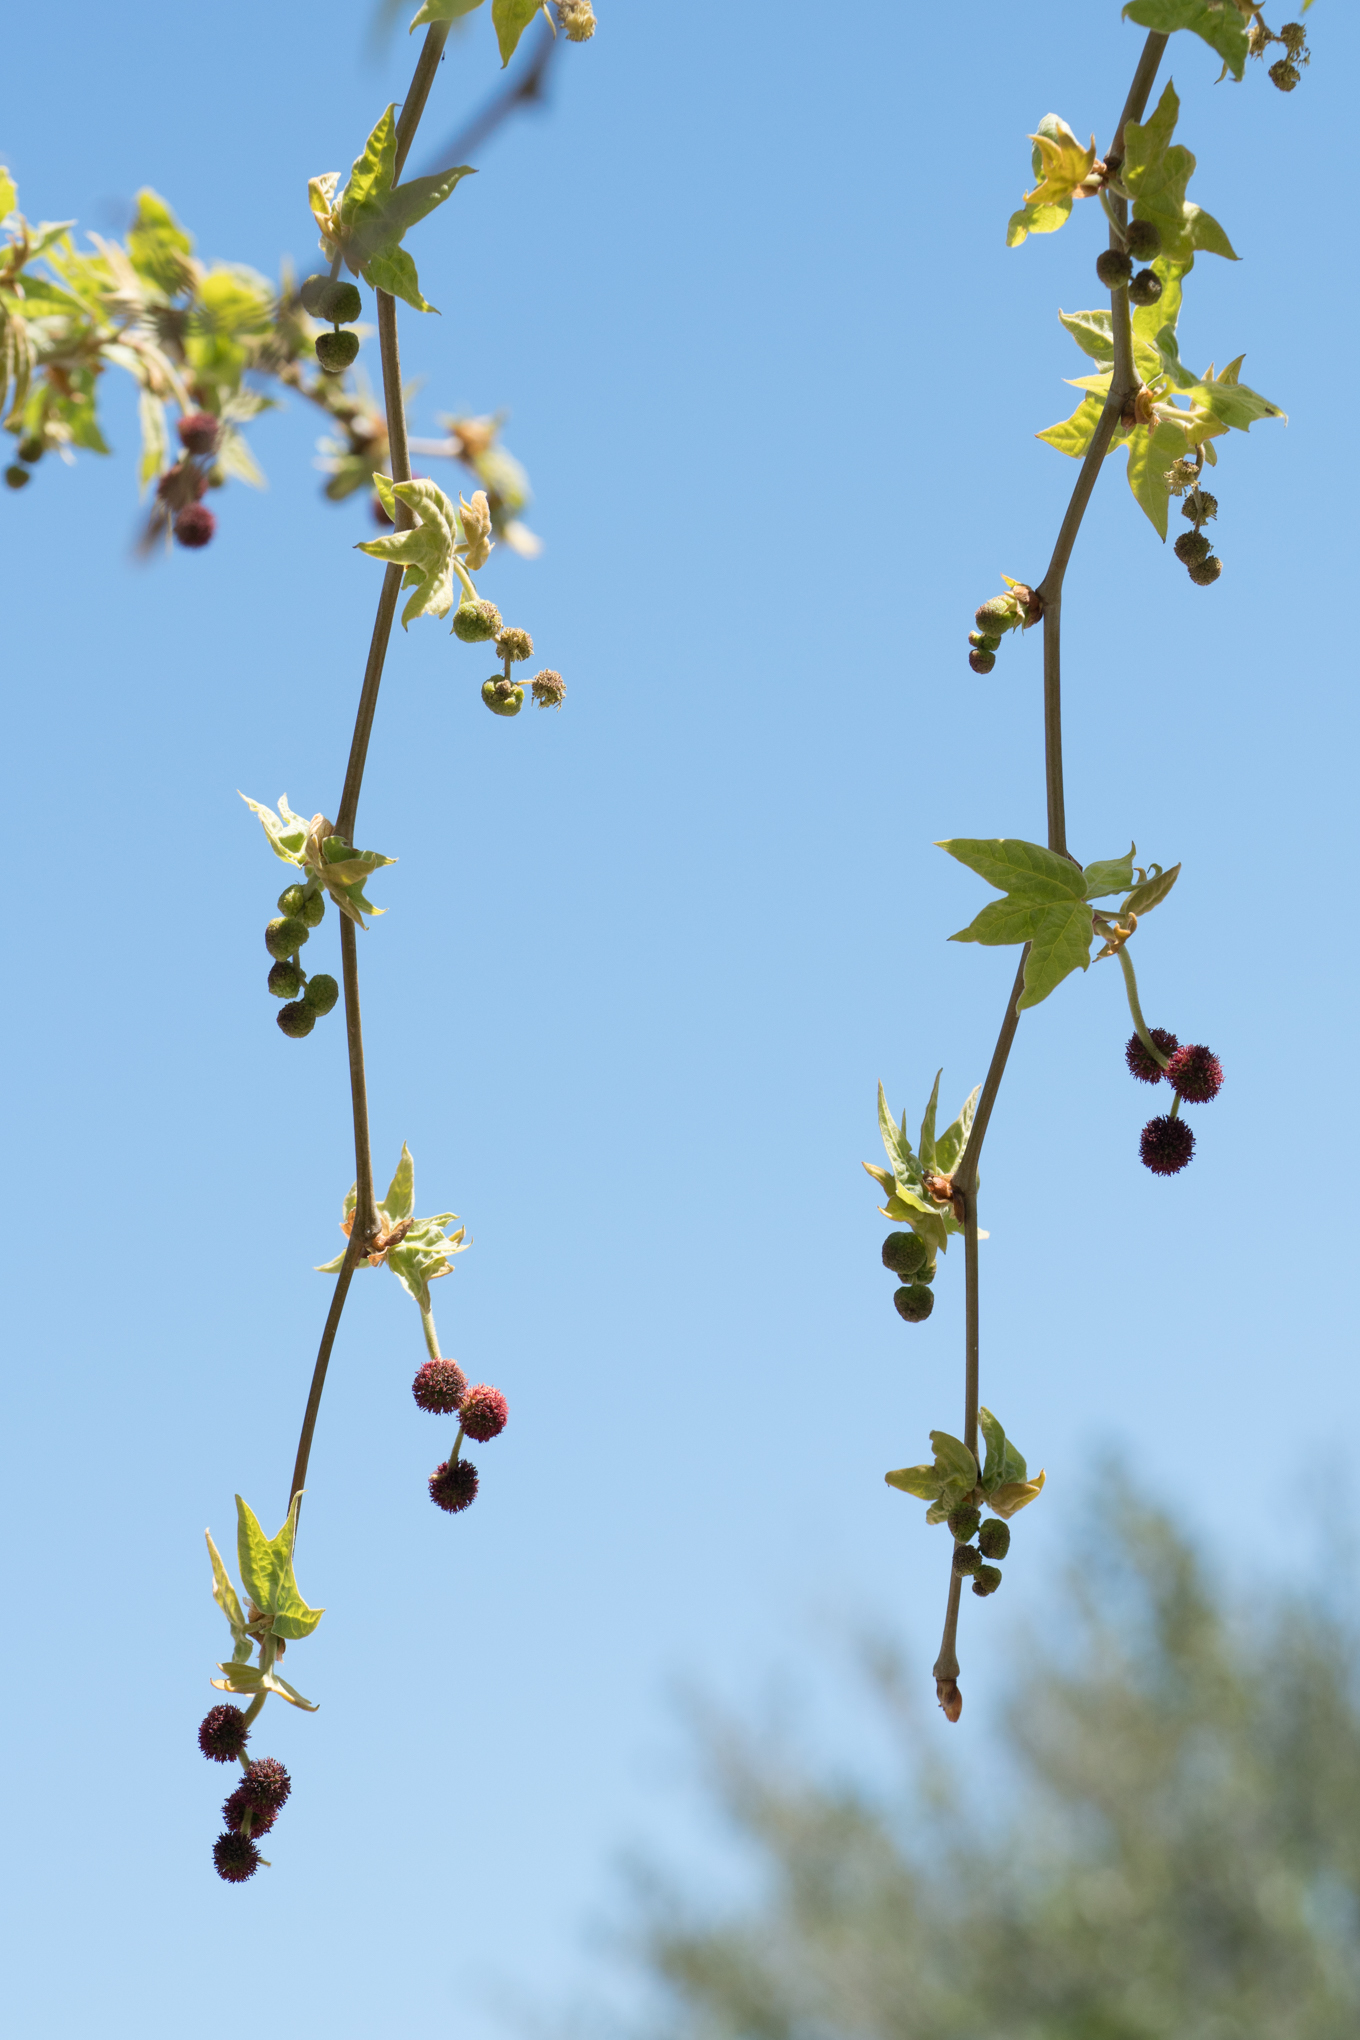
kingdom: Plantae
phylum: Tracheophyta
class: Magnoliopsida
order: Proteales
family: Platanaceae
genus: Platanus
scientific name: Platanus racemosa
